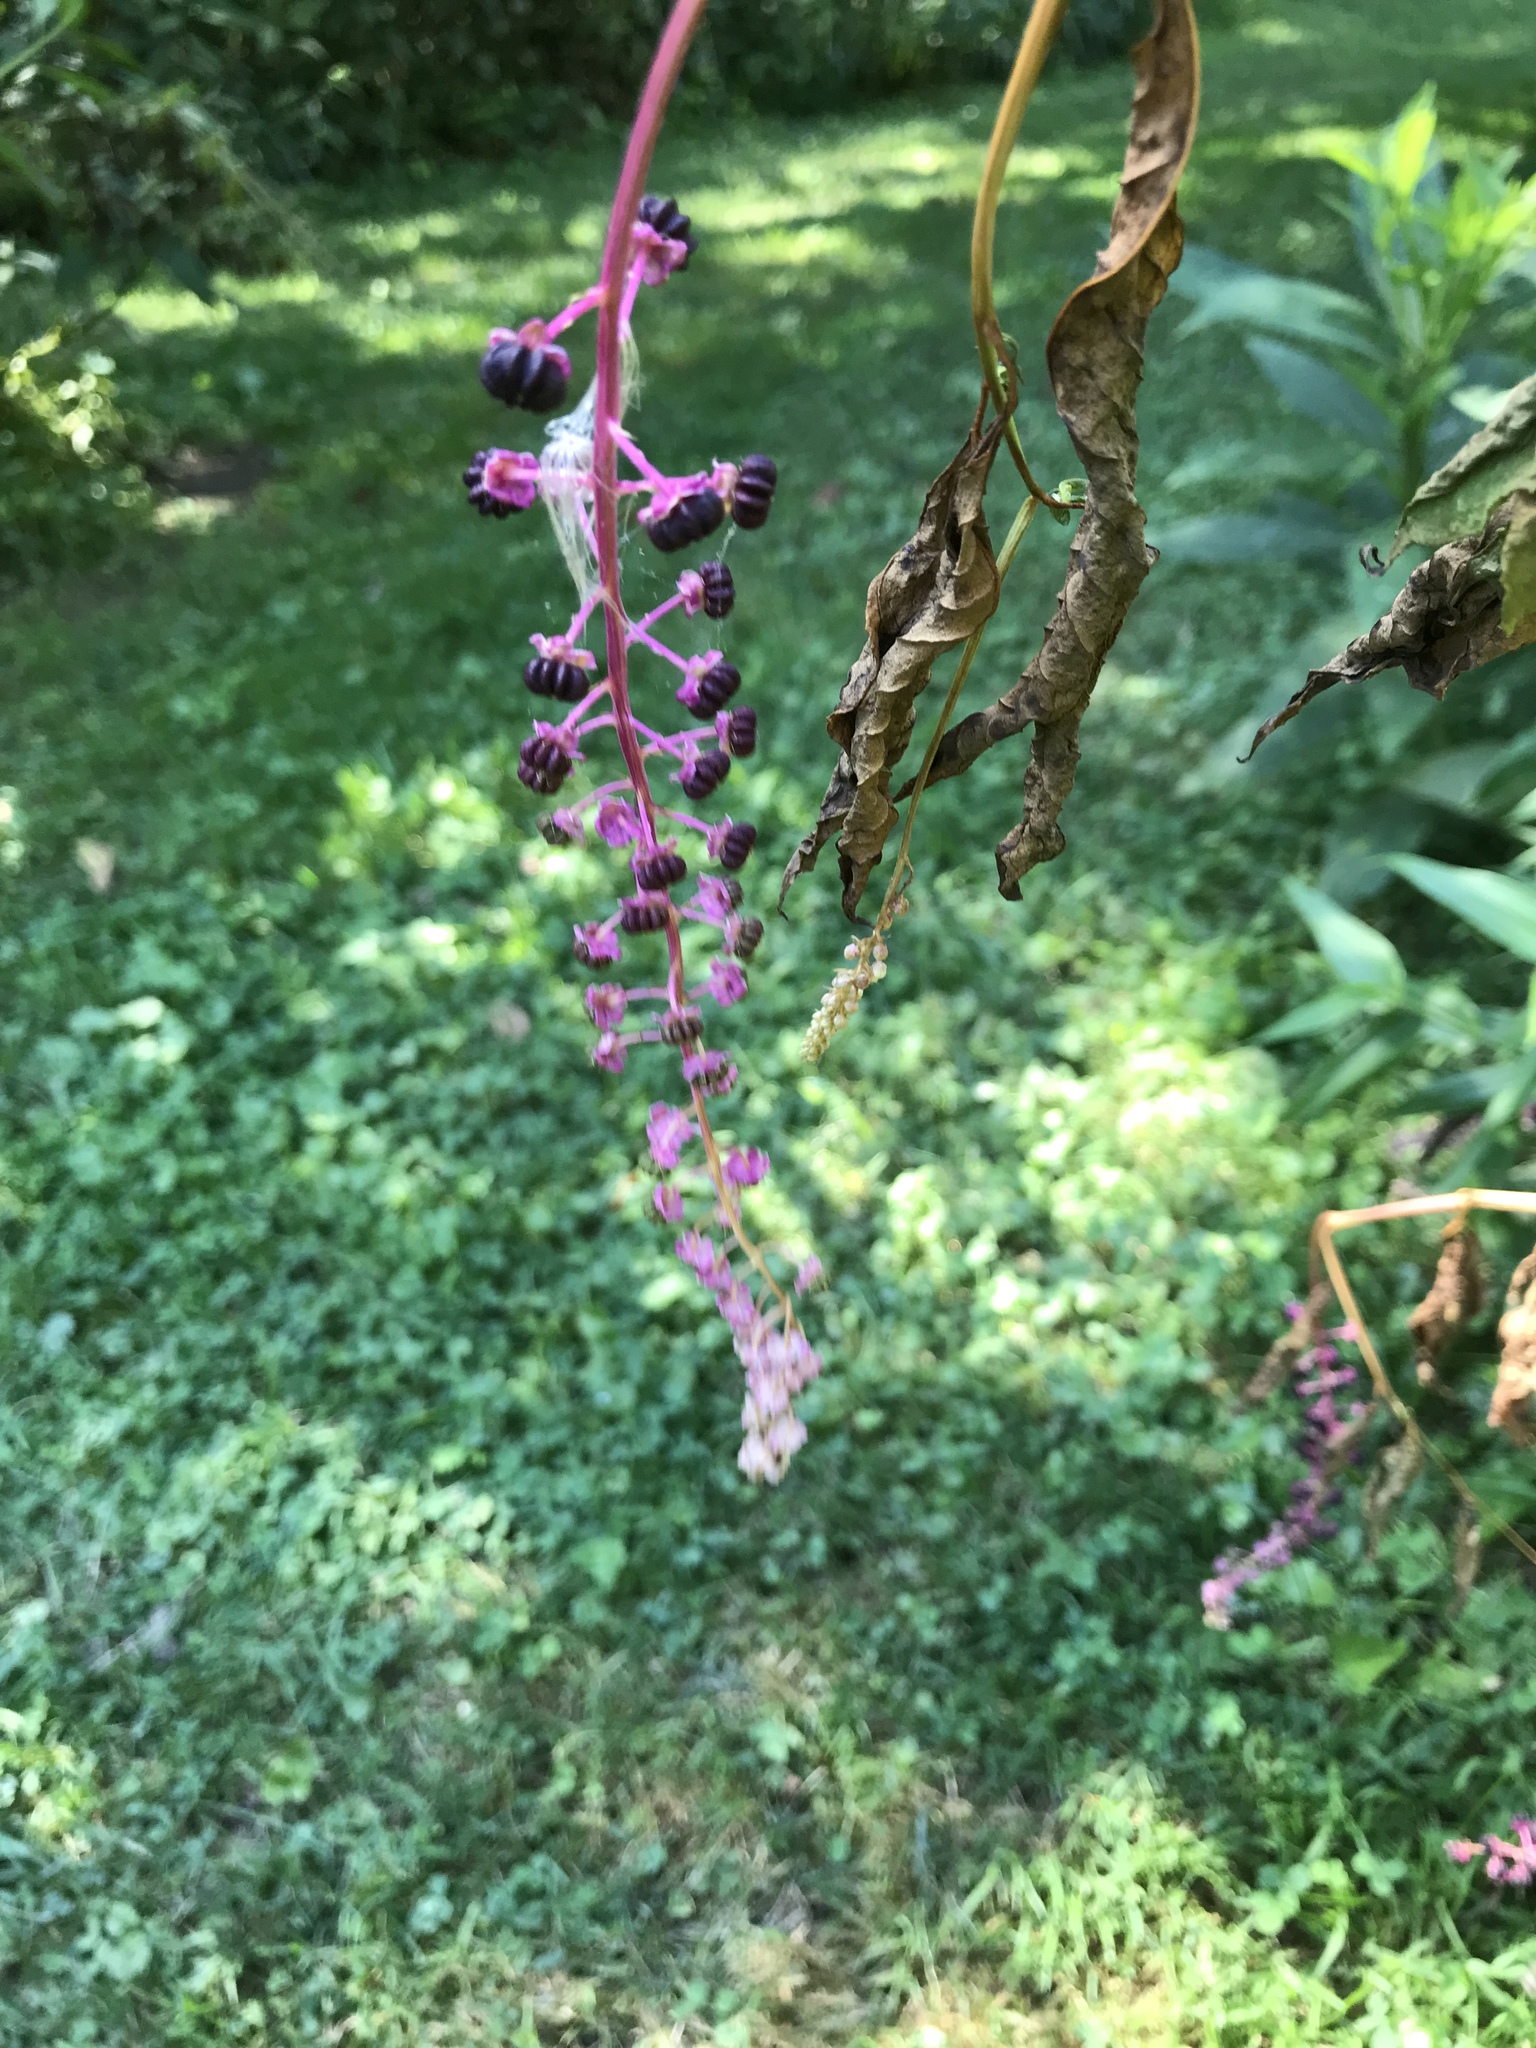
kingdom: Plantae
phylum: Tracheophyta
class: Magnoliopsida
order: Caryophyllales
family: Phytolaccaceae
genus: Phytolacca
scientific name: Phytolacca americana
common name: American pokeweed
